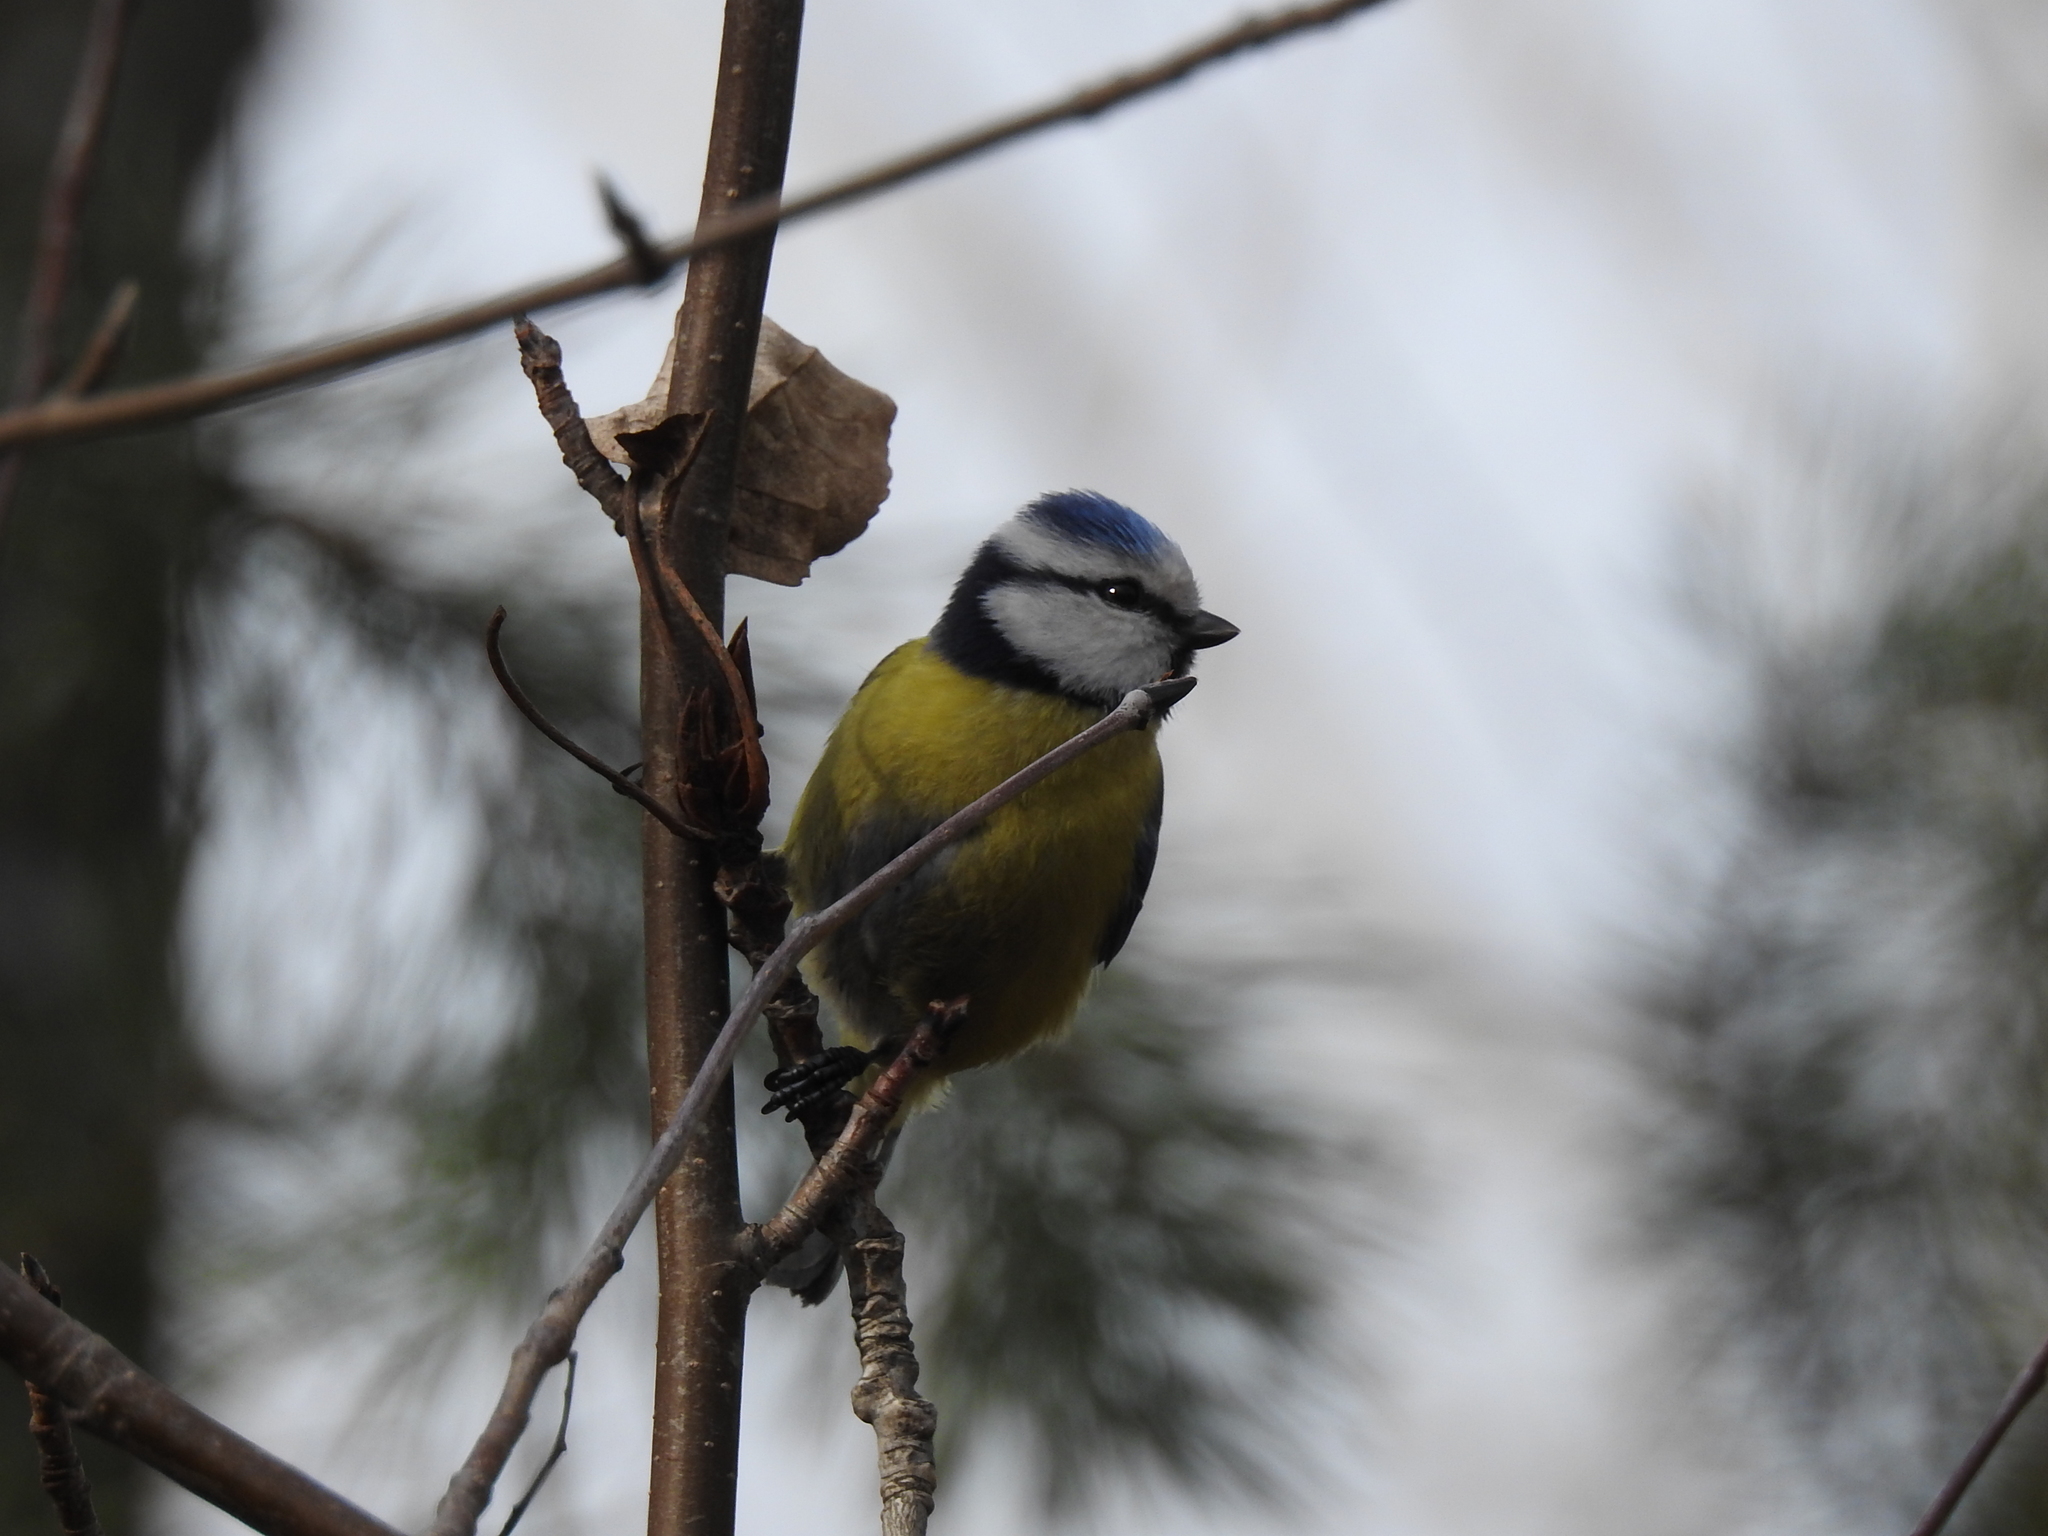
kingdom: Animalia
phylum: Chordata
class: Aves
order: Passeriformes
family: Paridae
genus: Cyanistes
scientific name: Cyanistes caeruleus
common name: Eurasian blue tit
